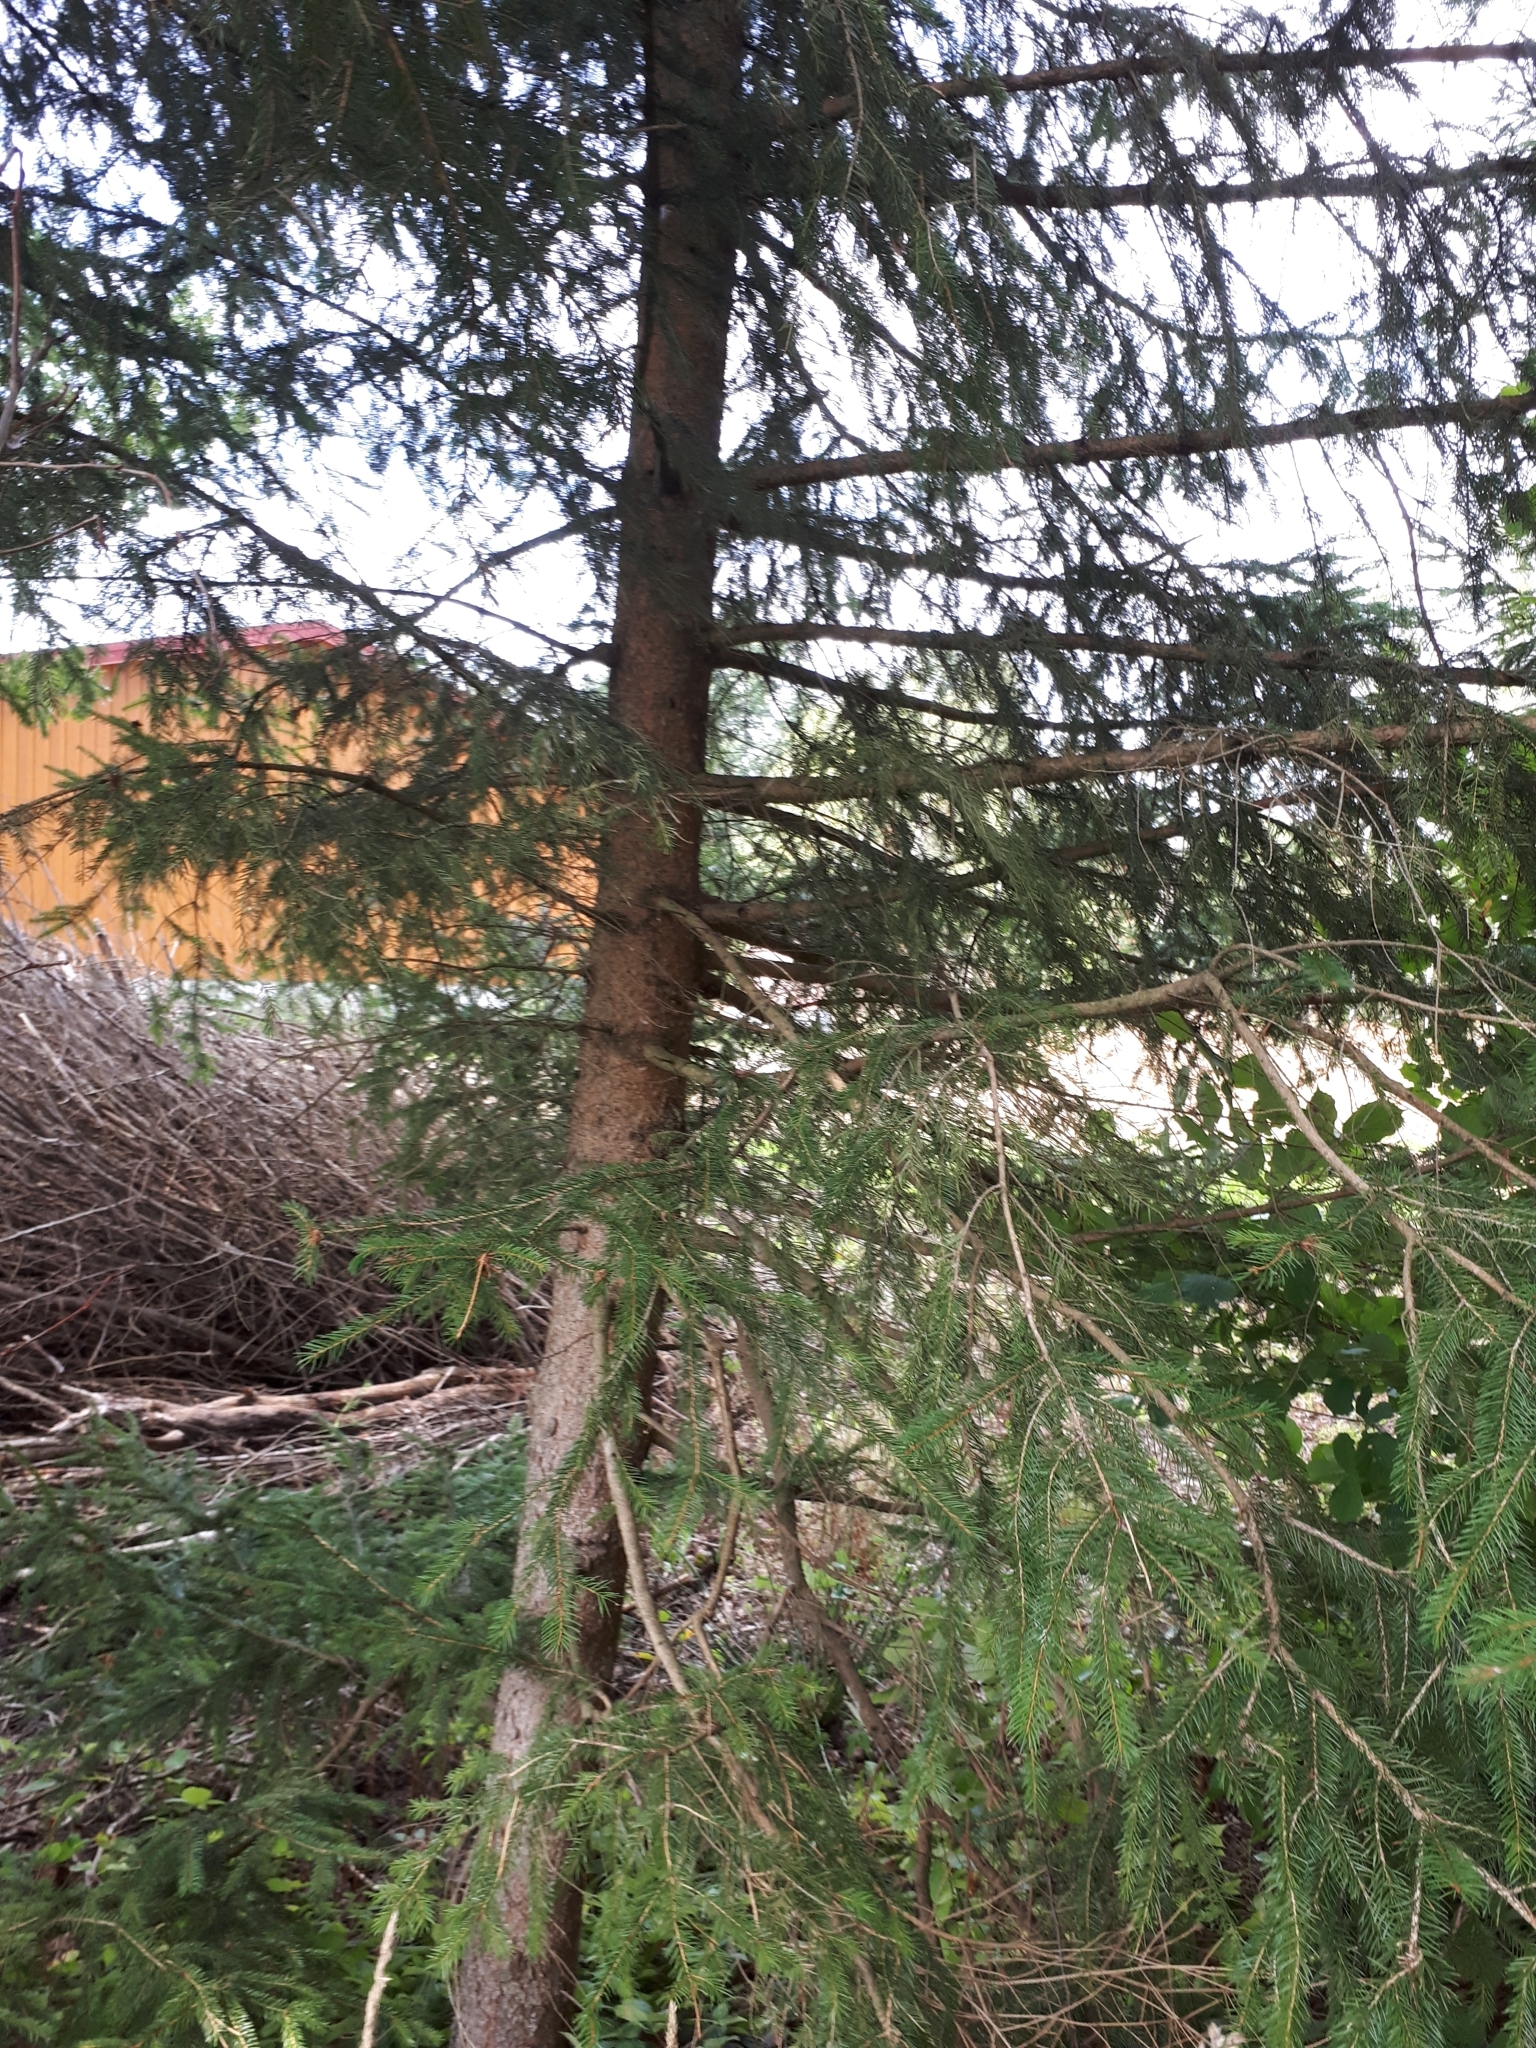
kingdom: Plantae
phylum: Tracheophyta
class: Pinopsida
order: Pinales
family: Pinaceae
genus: Picea
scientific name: Picea abies
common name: Norway spruce
